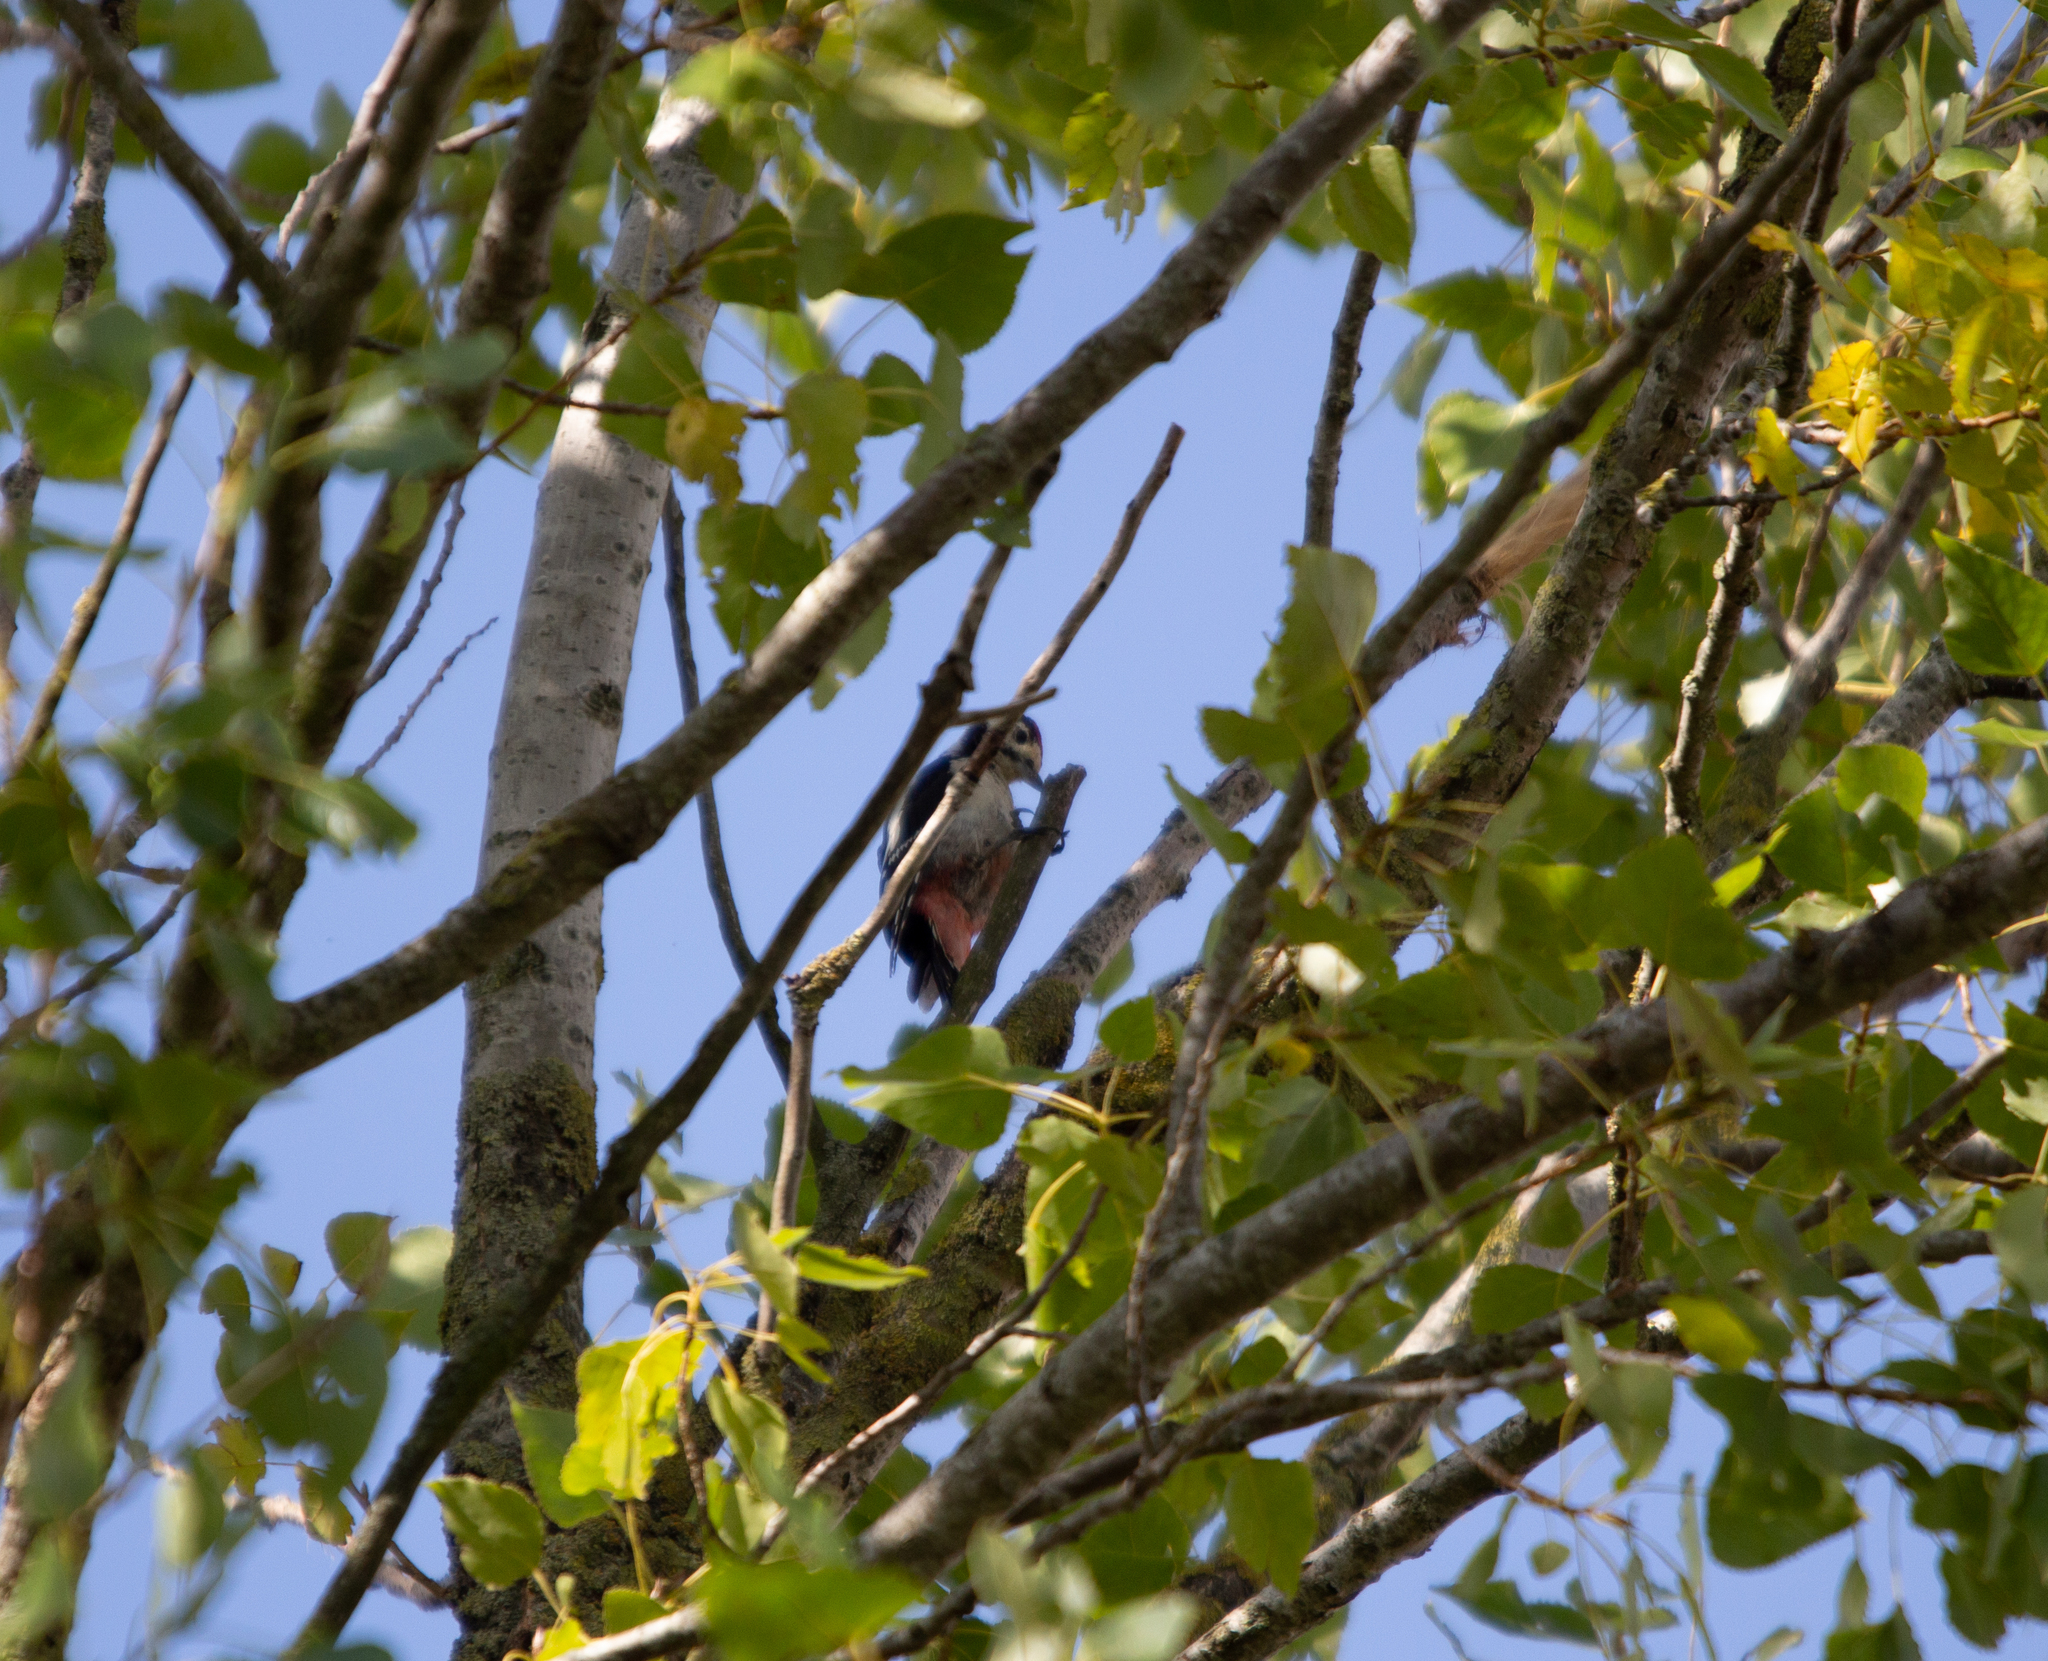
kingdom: Animalia
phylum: Chordata
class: Aves
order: Piciformes
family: Picidae
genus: Dendrocopos
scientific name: Dendrocopos major
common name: Great spotted woodpecker
